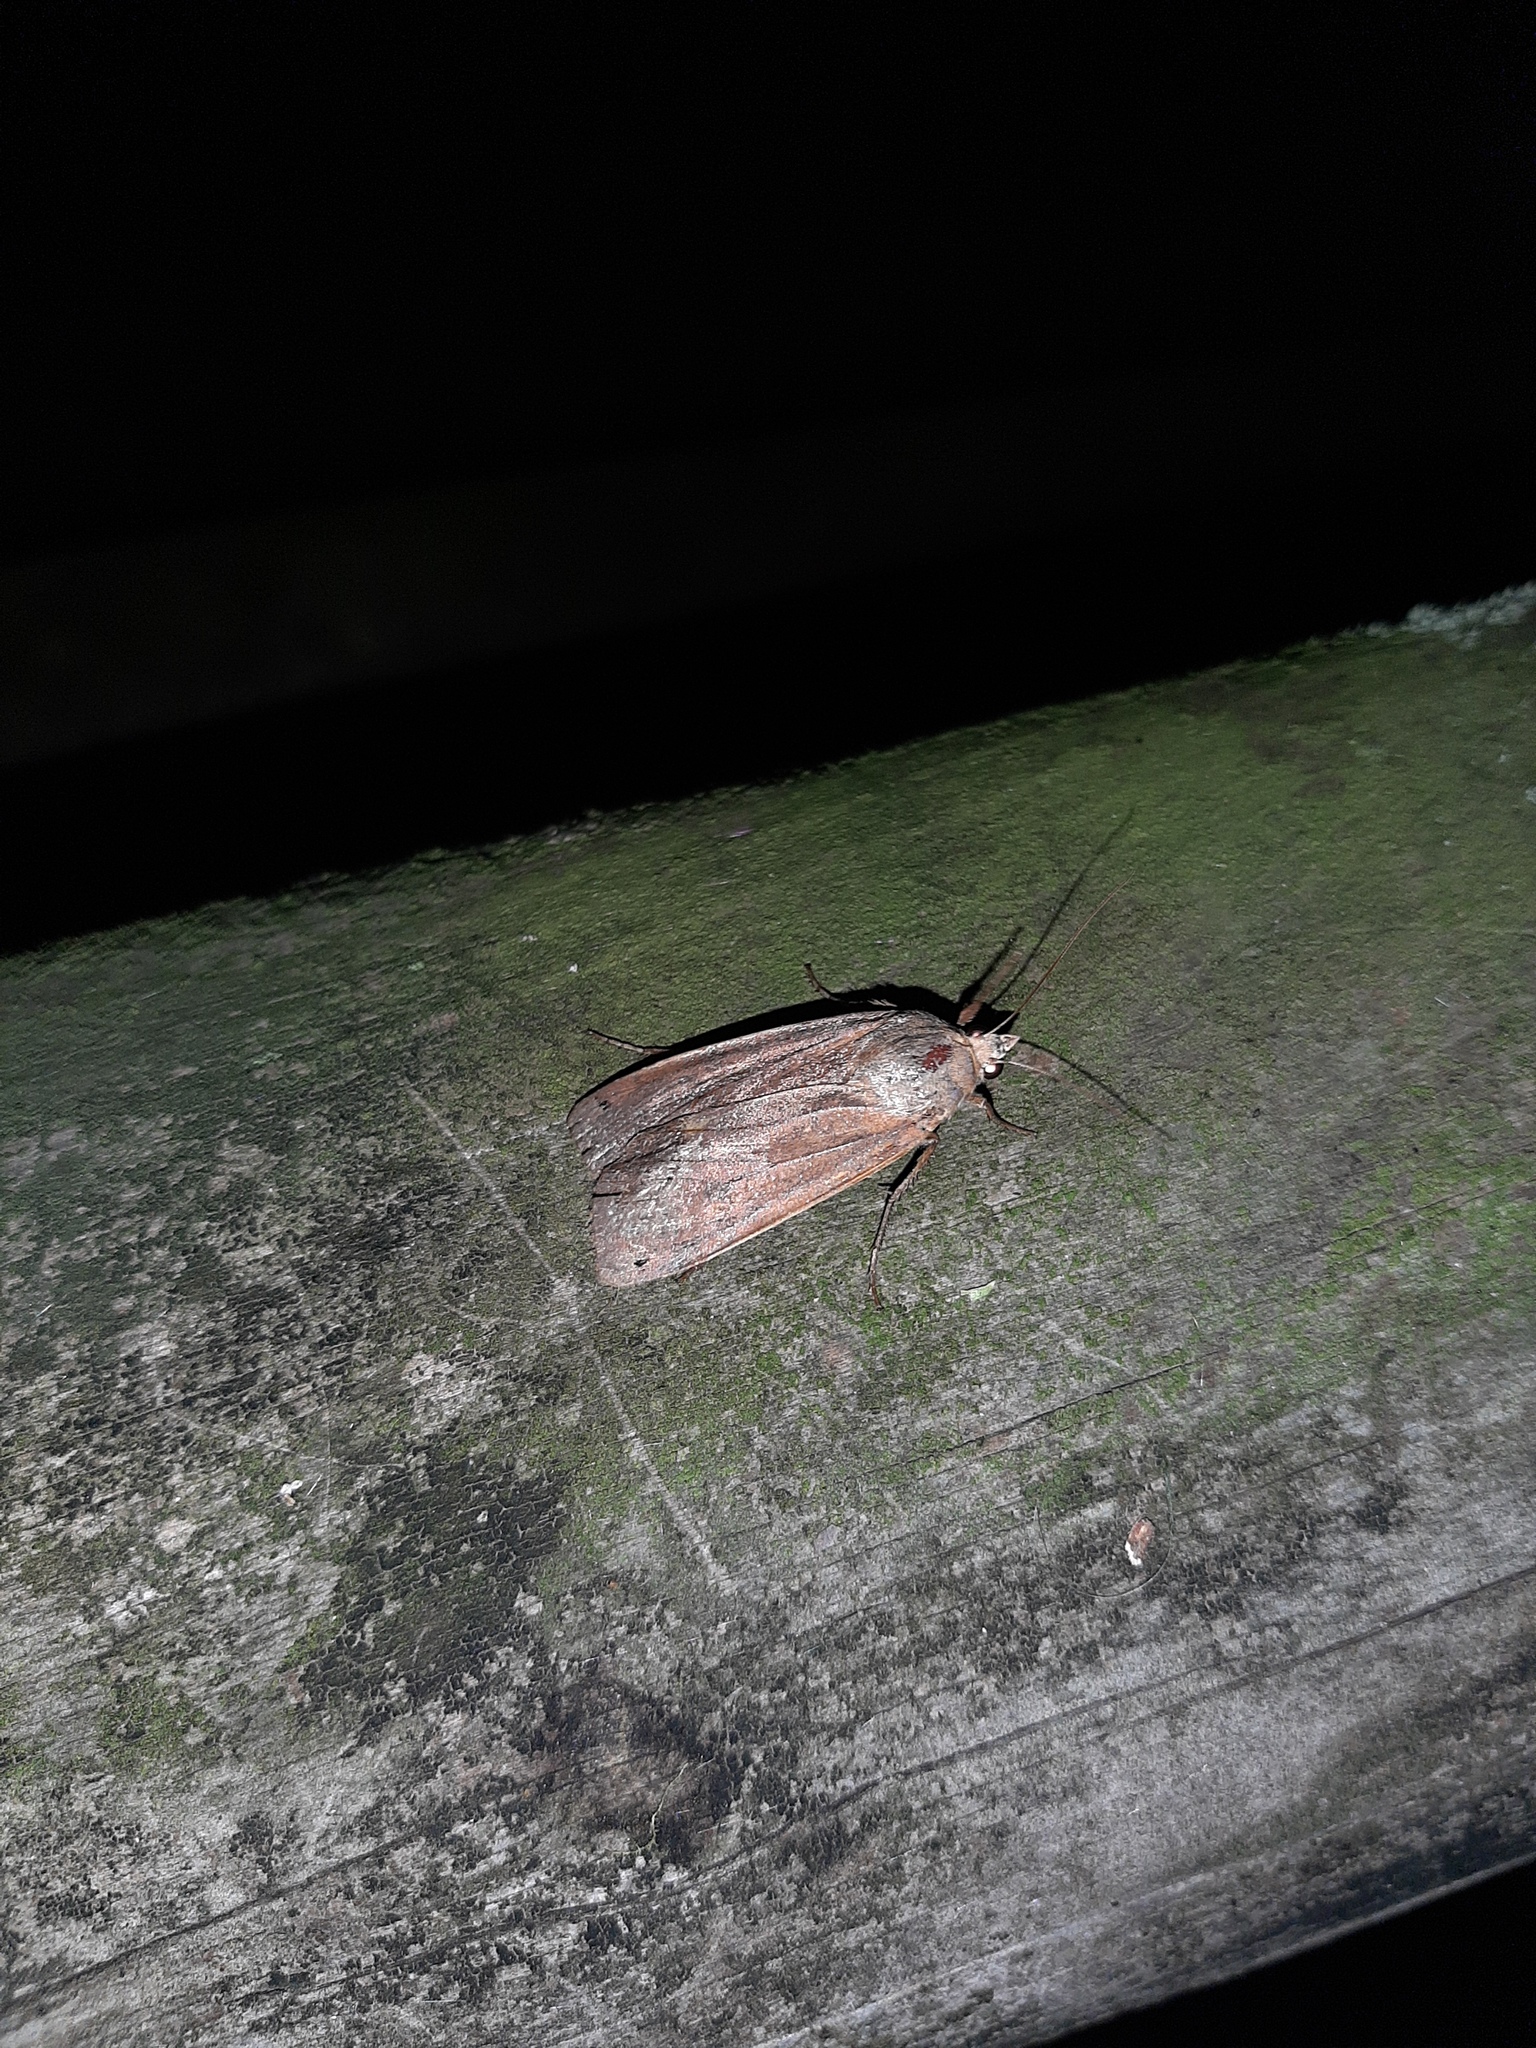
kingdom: Animalia
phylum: Arthropoda
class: Insecta
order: Lepidoptera
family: Noctuidae
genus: Noctua
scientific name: Noctua pronuba
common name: Large yellow underwing
